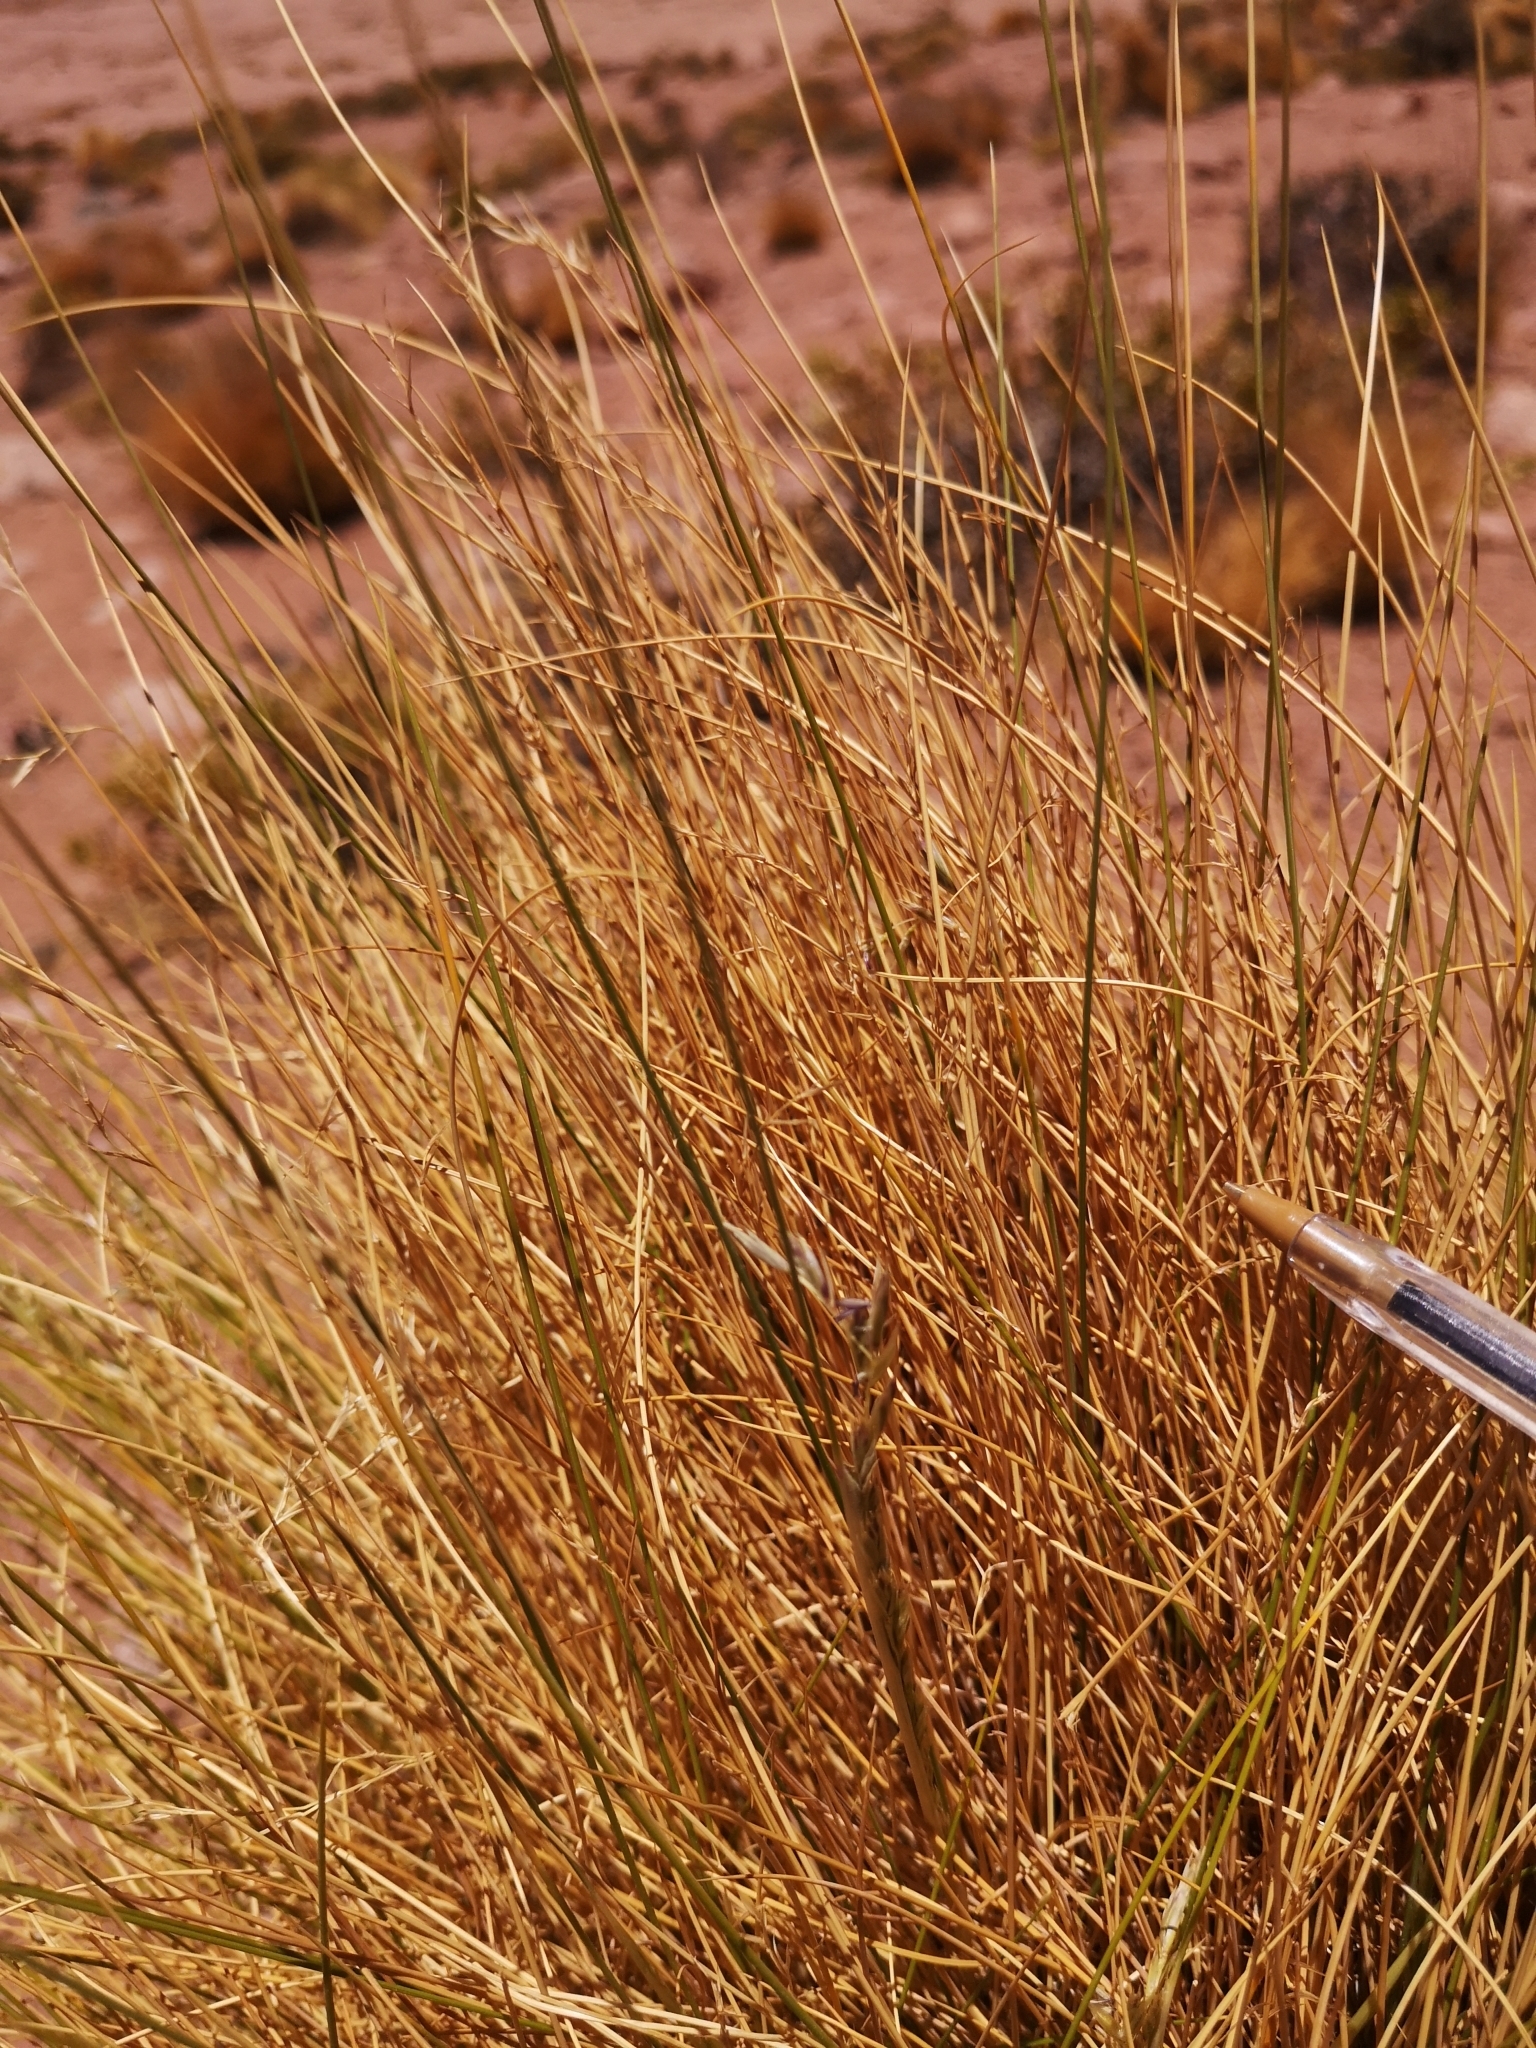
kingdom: Plantae
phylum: Tracheophyta
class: Liliopsida
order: Poales
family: Poaceae
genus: Festuca
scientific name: Festuca chrysophylla
